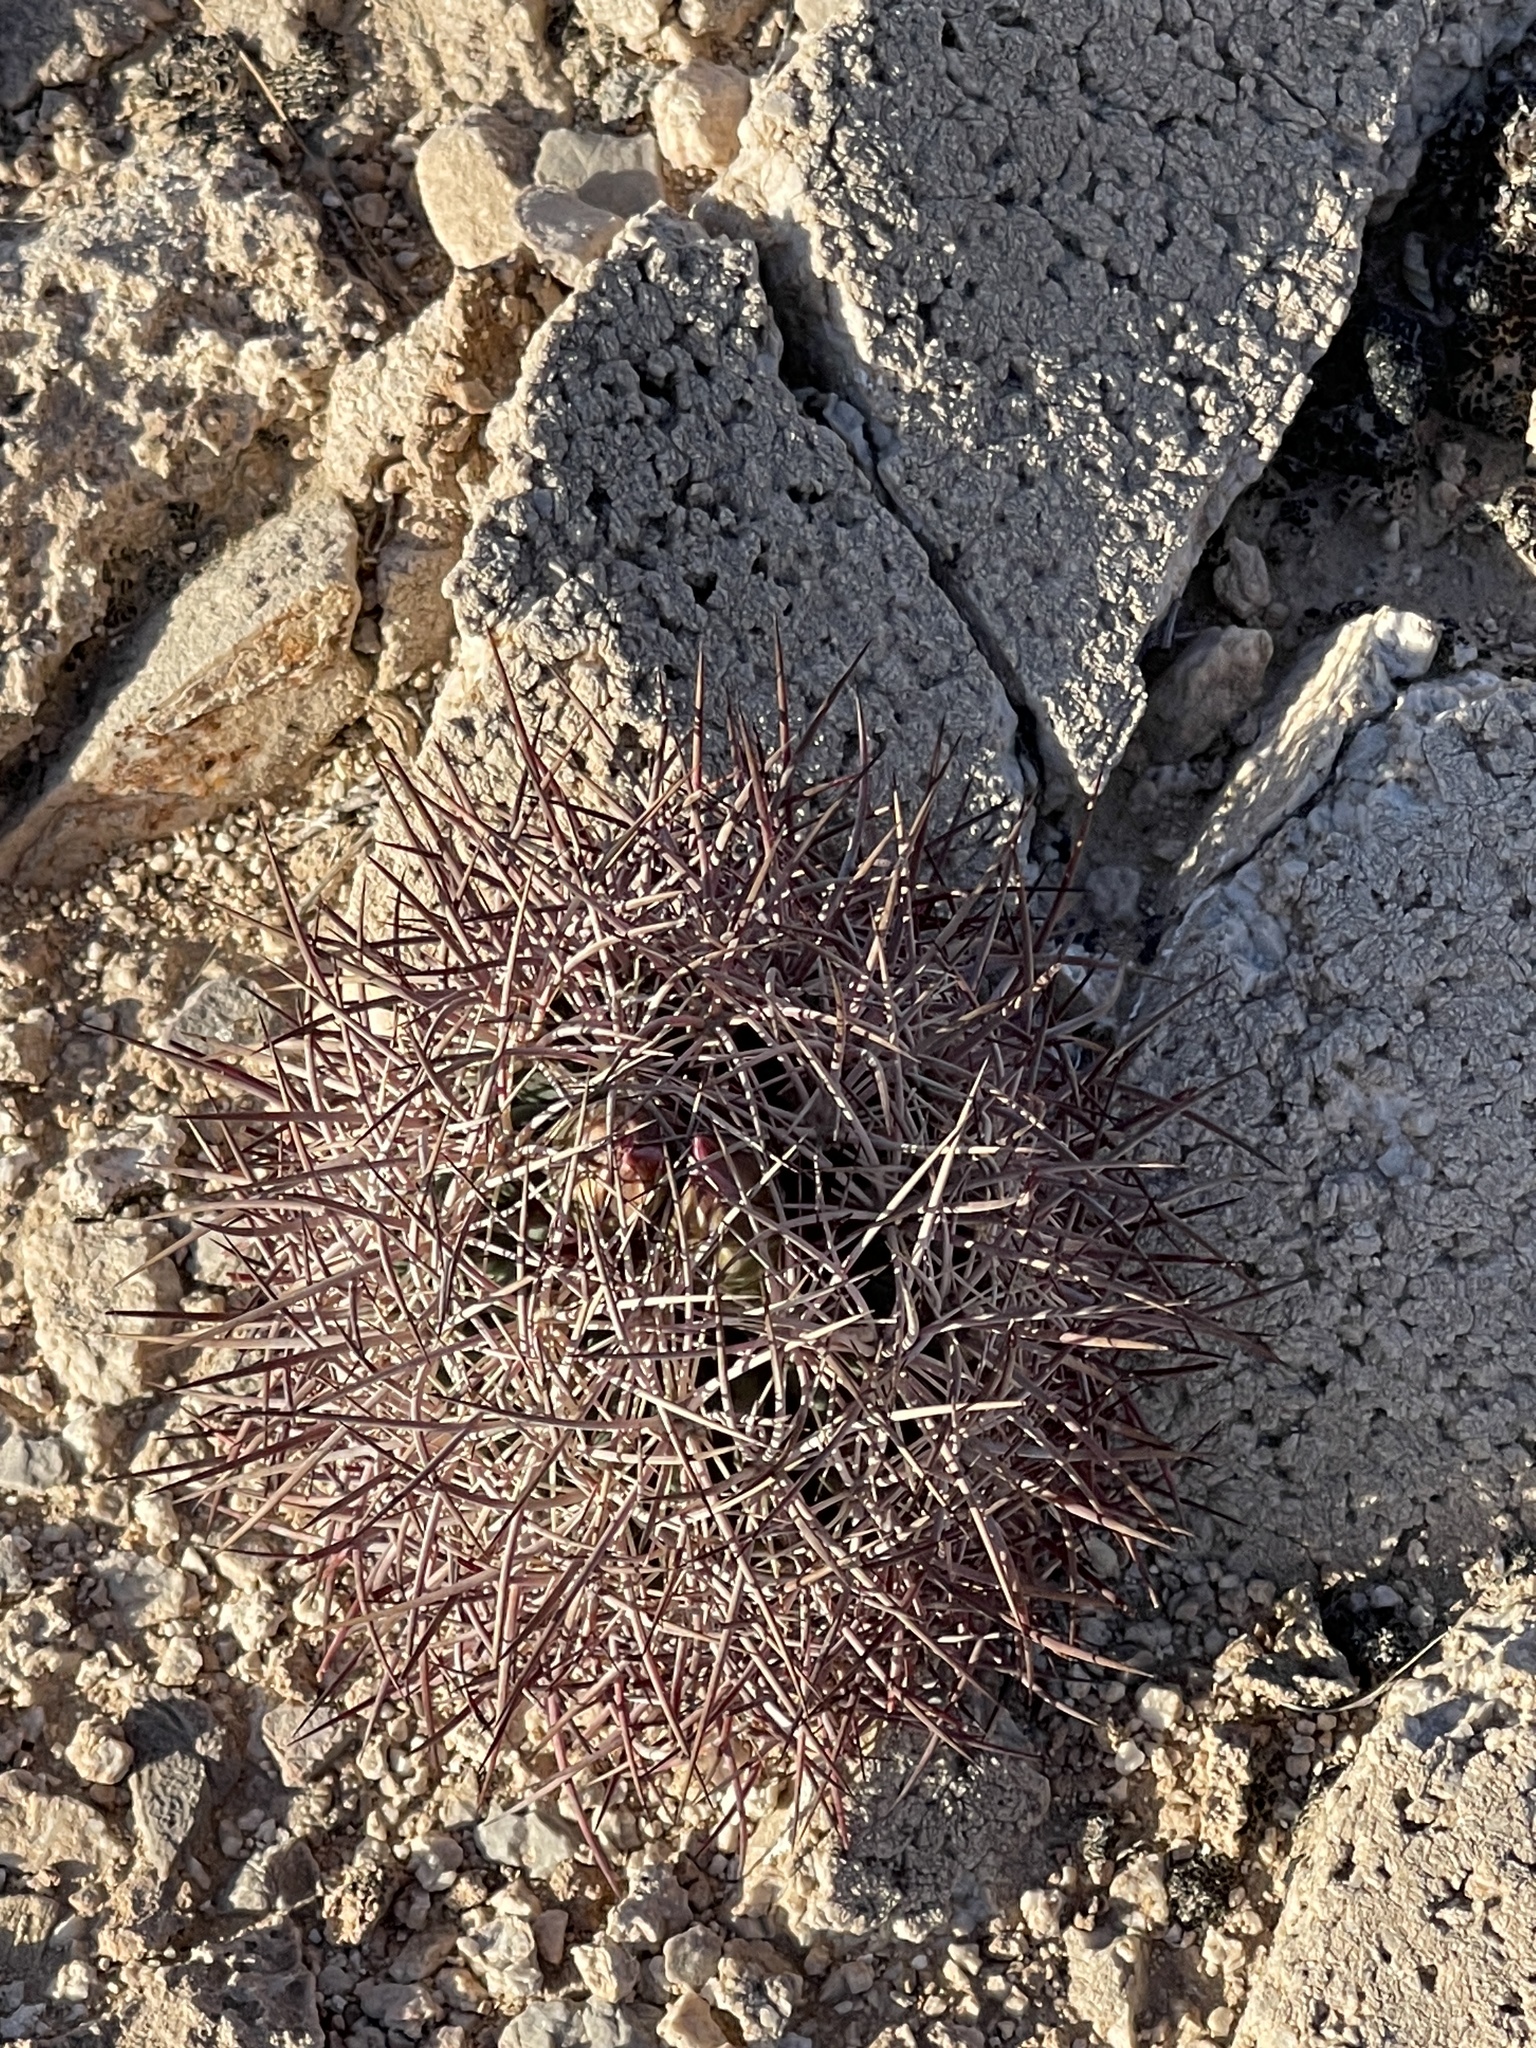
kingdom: Plantae
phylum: Tracheophyta
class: Magnoliopsida
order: Caryophyllales
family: Cactaceae
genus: Sclerocactus
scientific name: Sclerocactus johnsonii
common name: Eight-spine fishhook cactus
